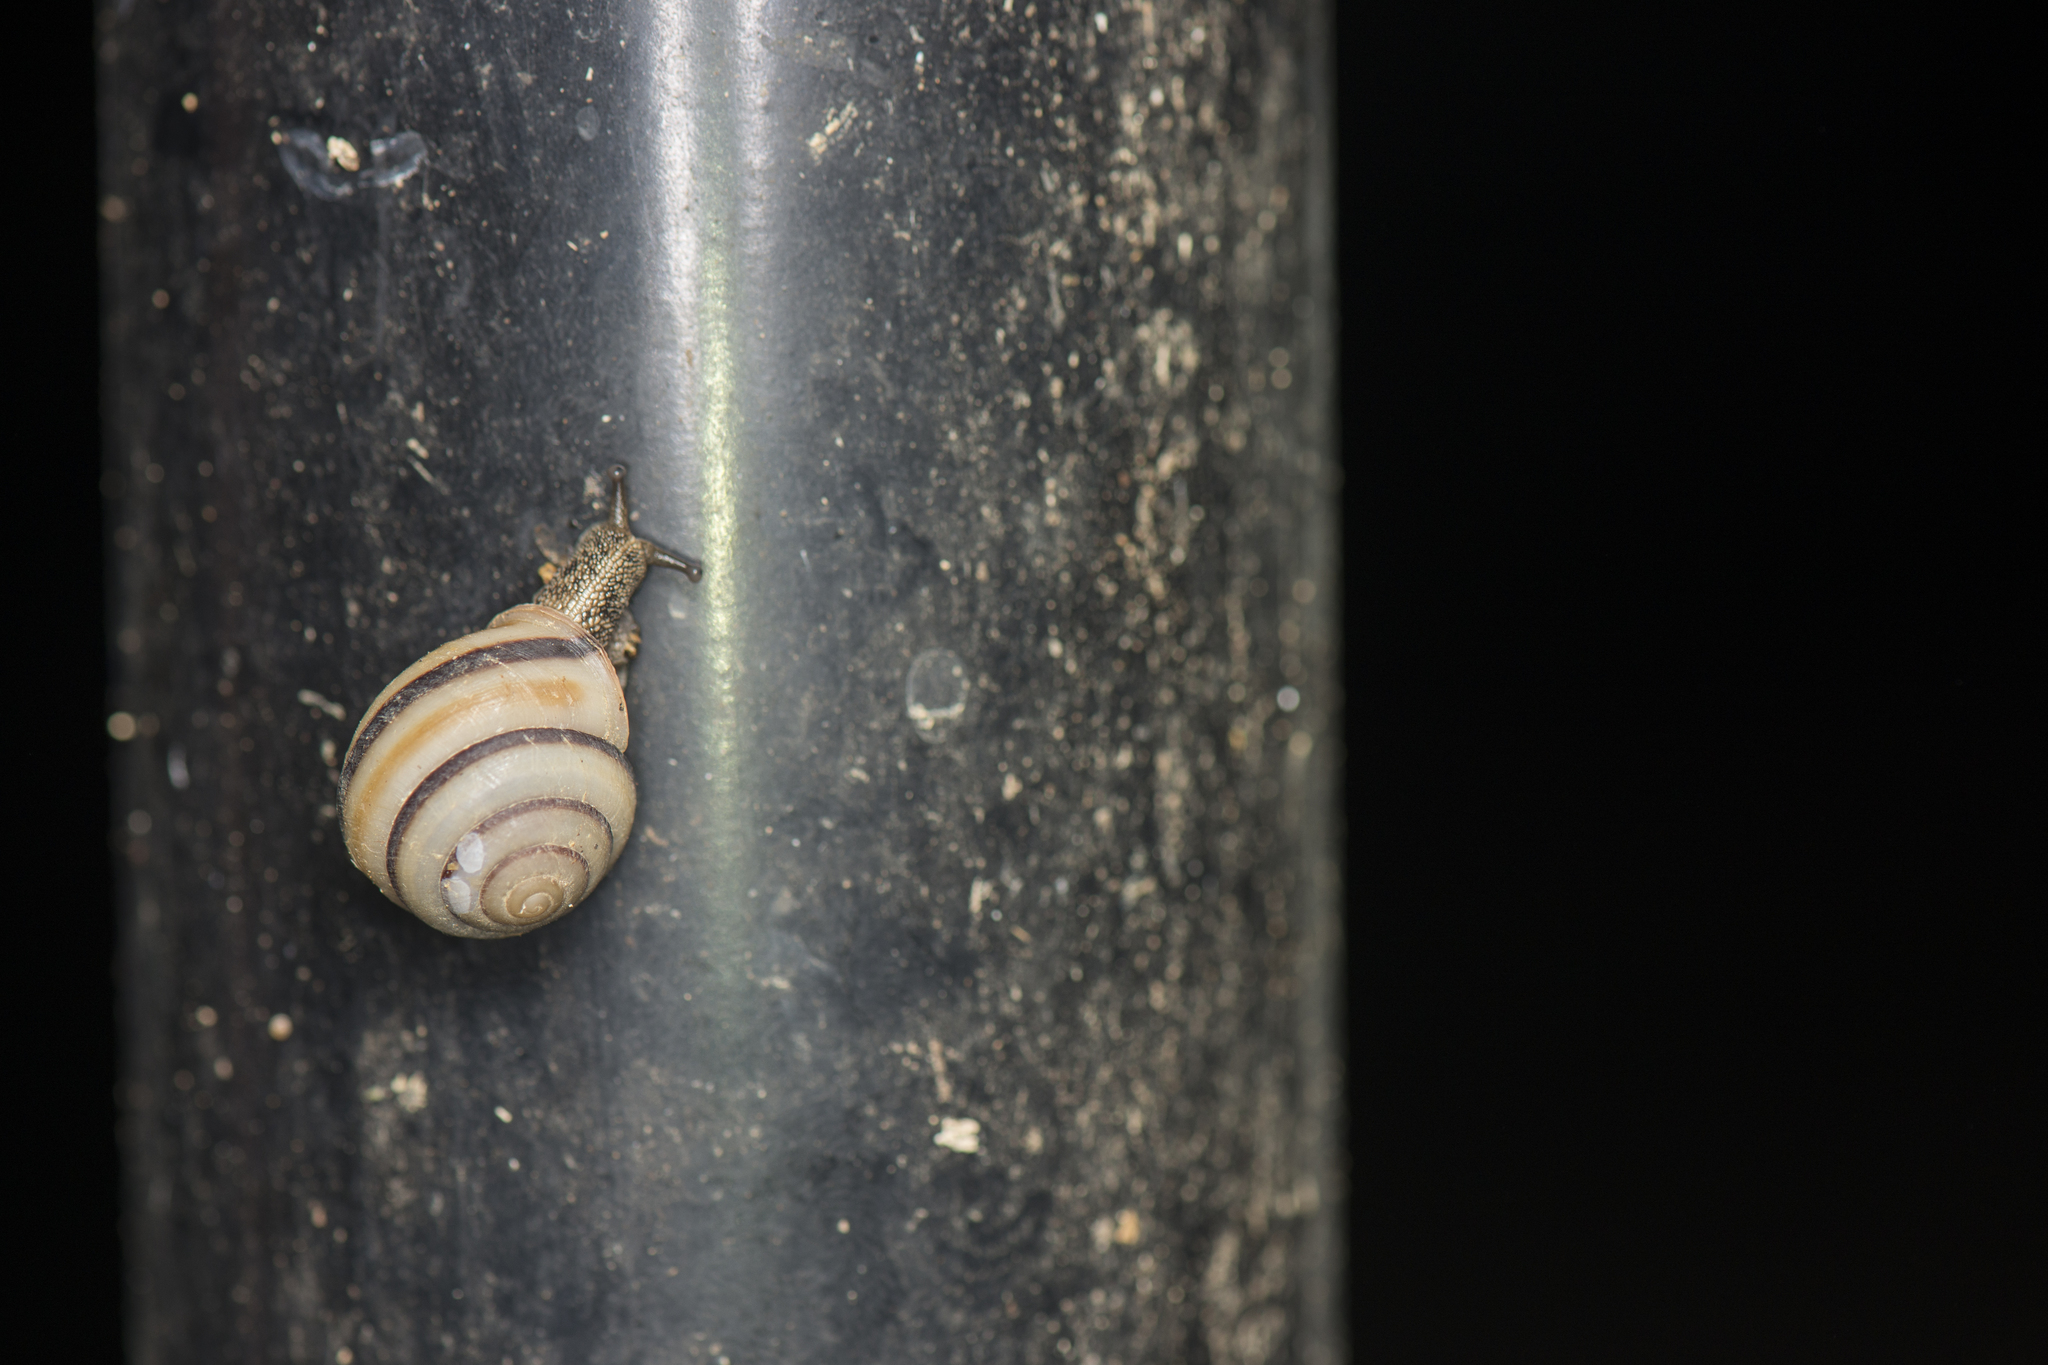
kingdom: Animalia
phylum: Mollusca
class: Gastropoda
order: Stylommatophora
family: Camaenidae
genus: Satsuma
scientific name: Satsuma succincta
